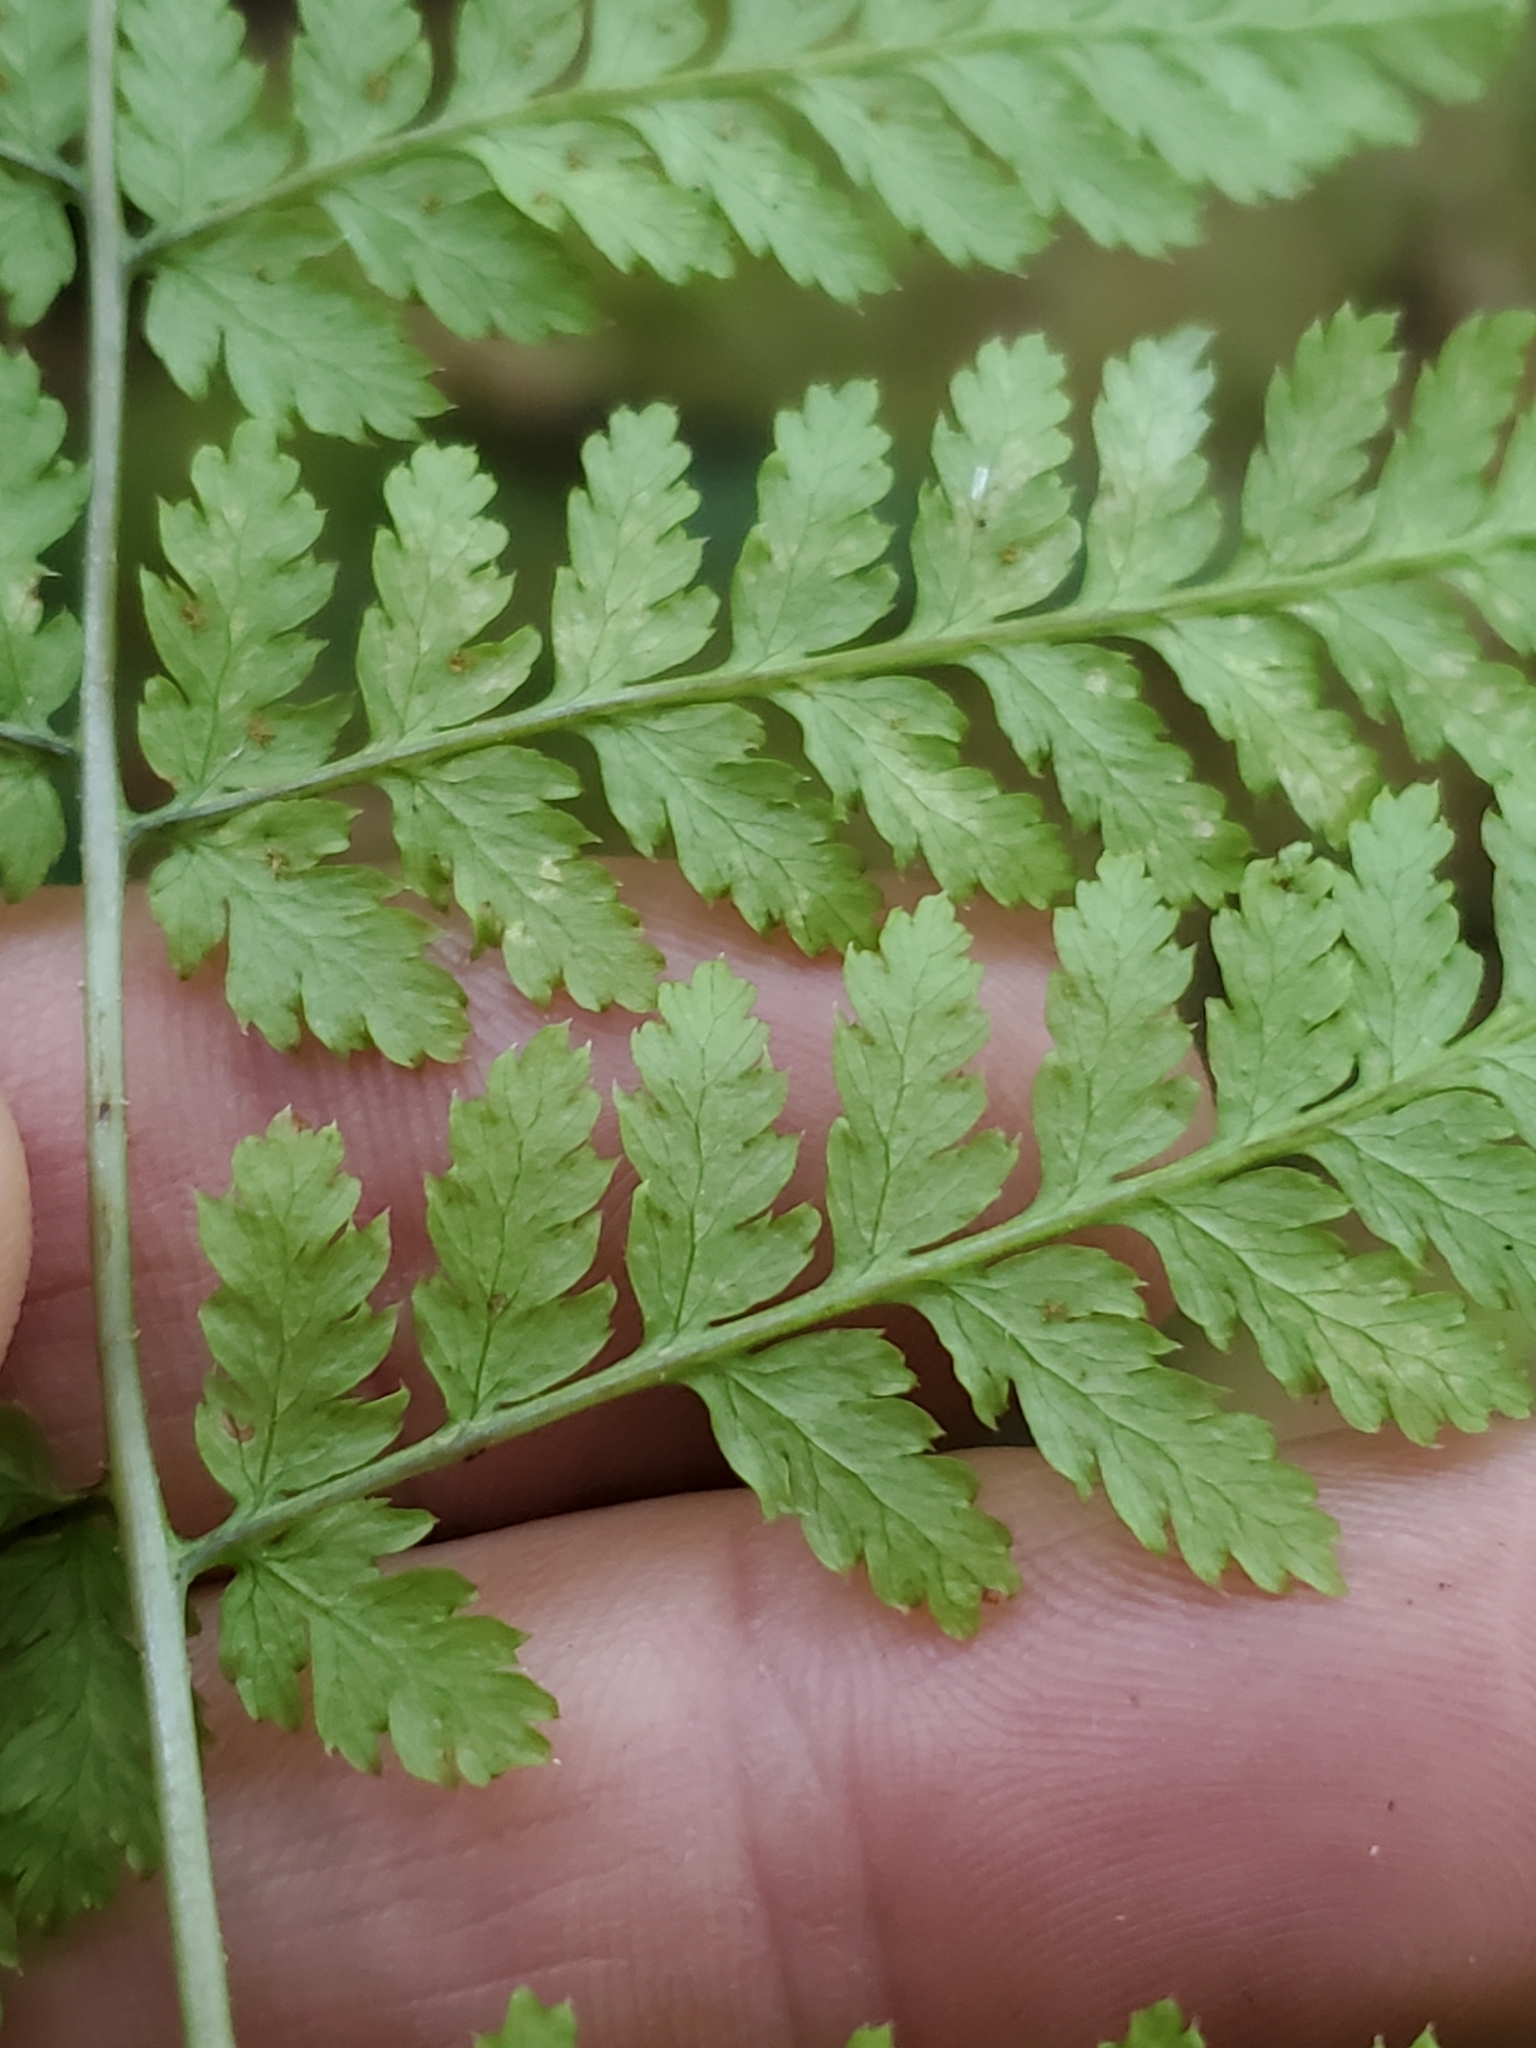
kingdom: Plantae
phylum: Tracheophyta
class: Polypodiopsida
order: Polypodiales
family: Dryopteridaceae
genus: Dryopteris
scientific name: Dryopteris expansa
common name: Northern buckler fern
